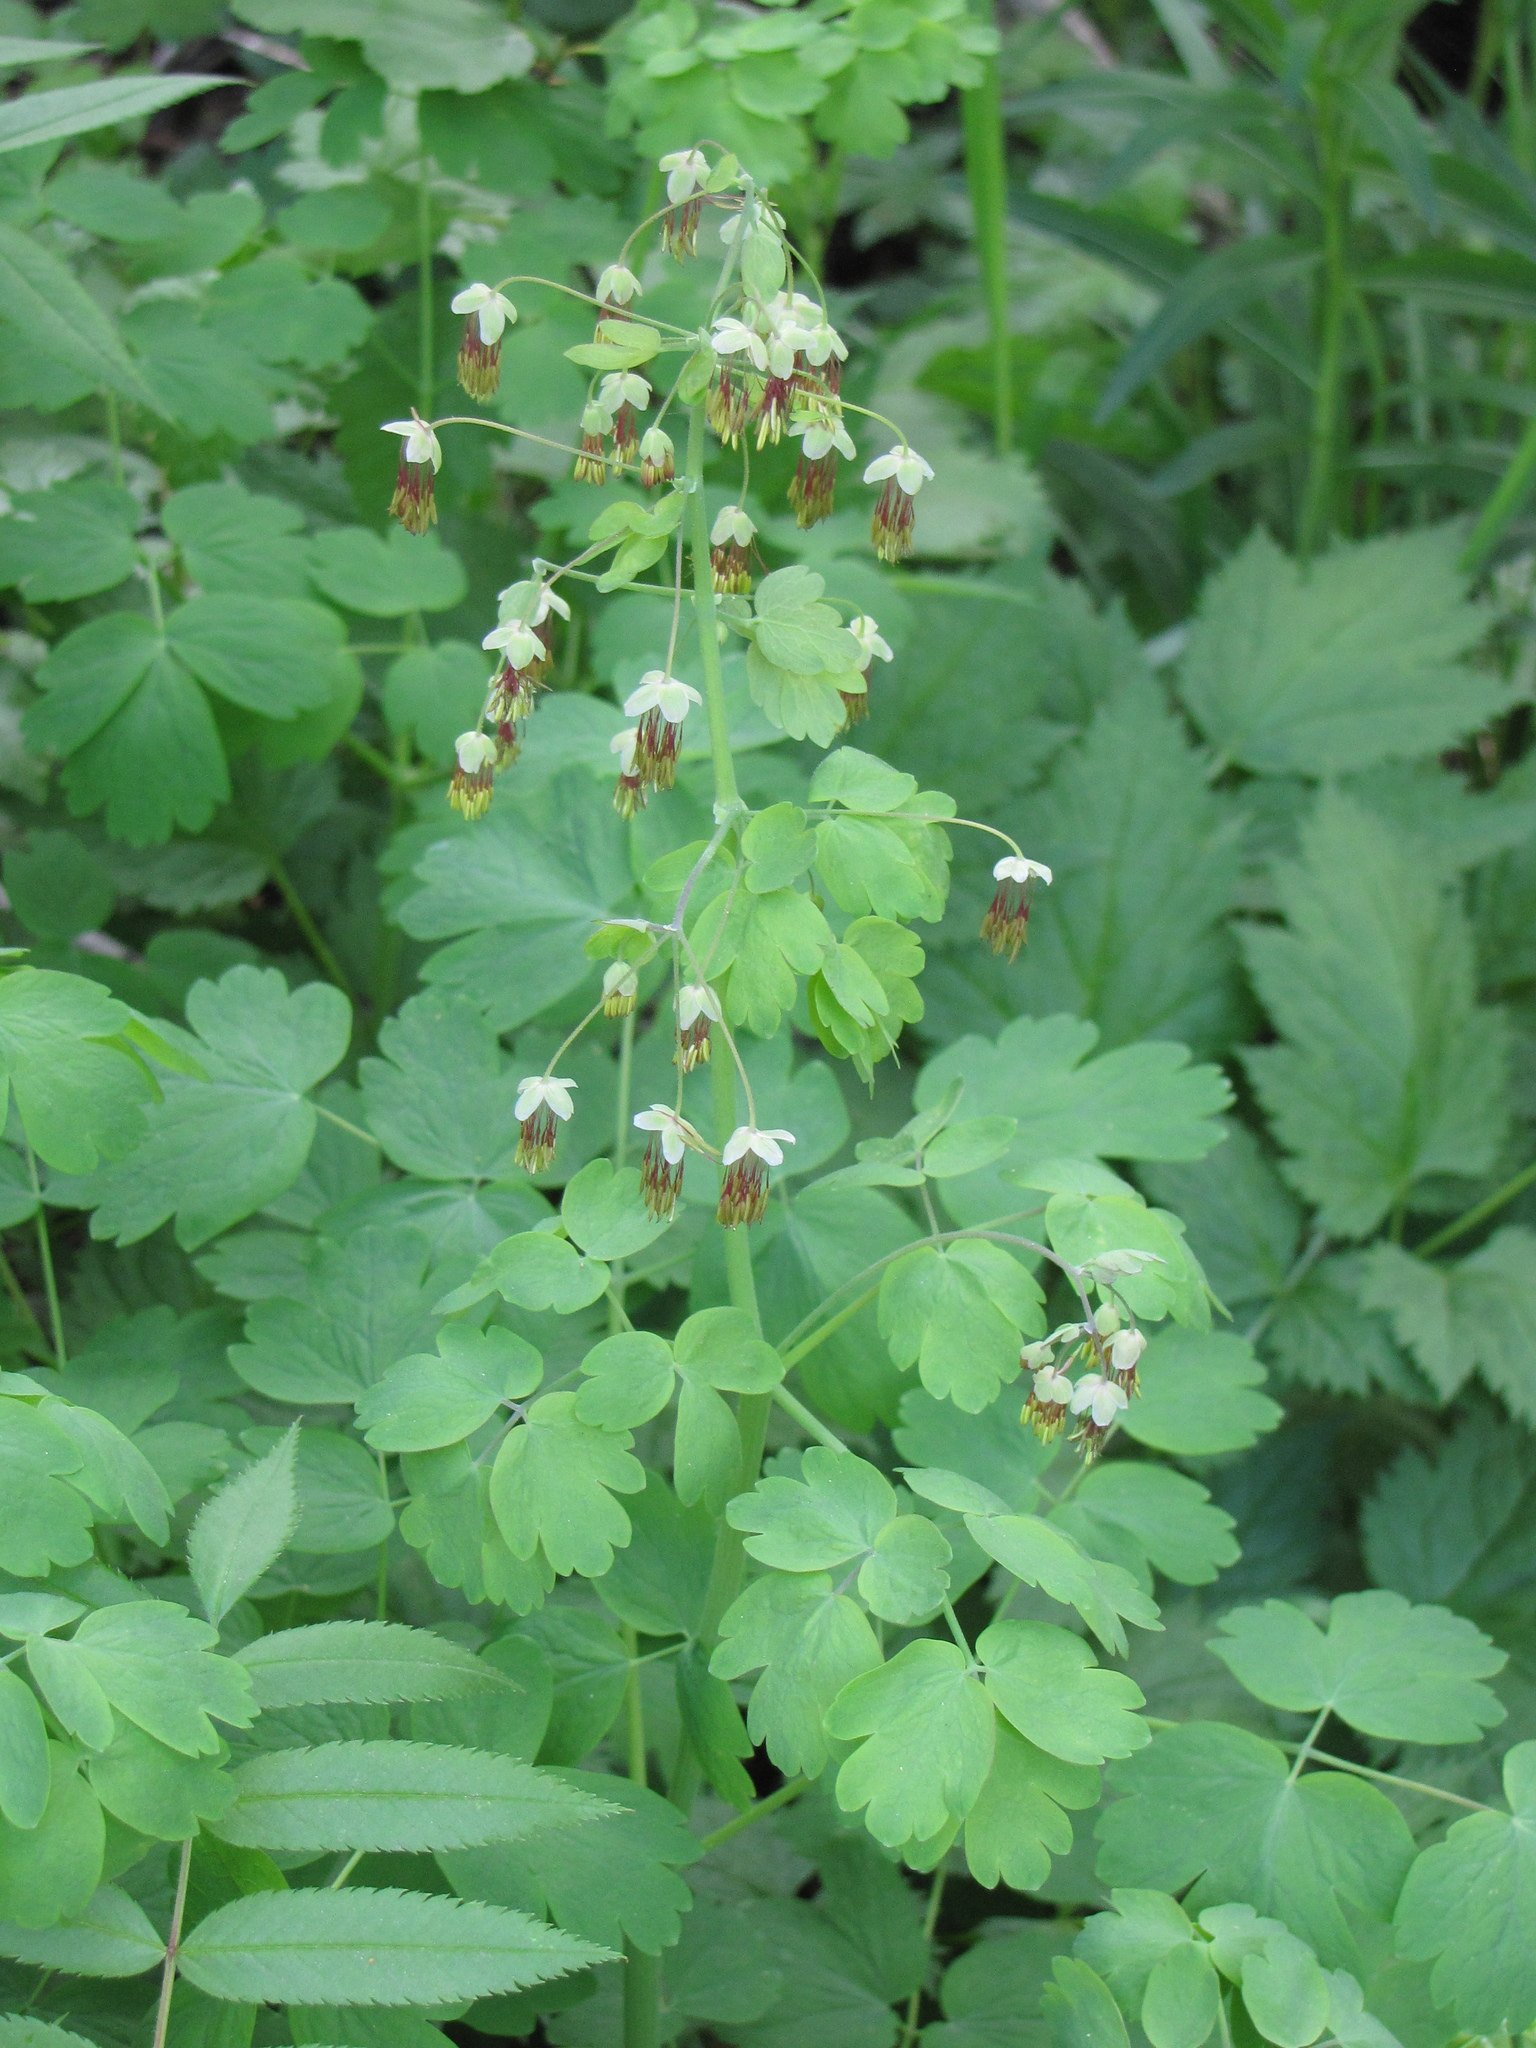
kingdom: Plantae
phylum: Tracheophyta
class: Magnoliopsida
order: Ranunculales
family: Ranunculaceae
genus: Thalictrum
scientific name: Thalictrum occidentale
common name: Western meadow-rue
